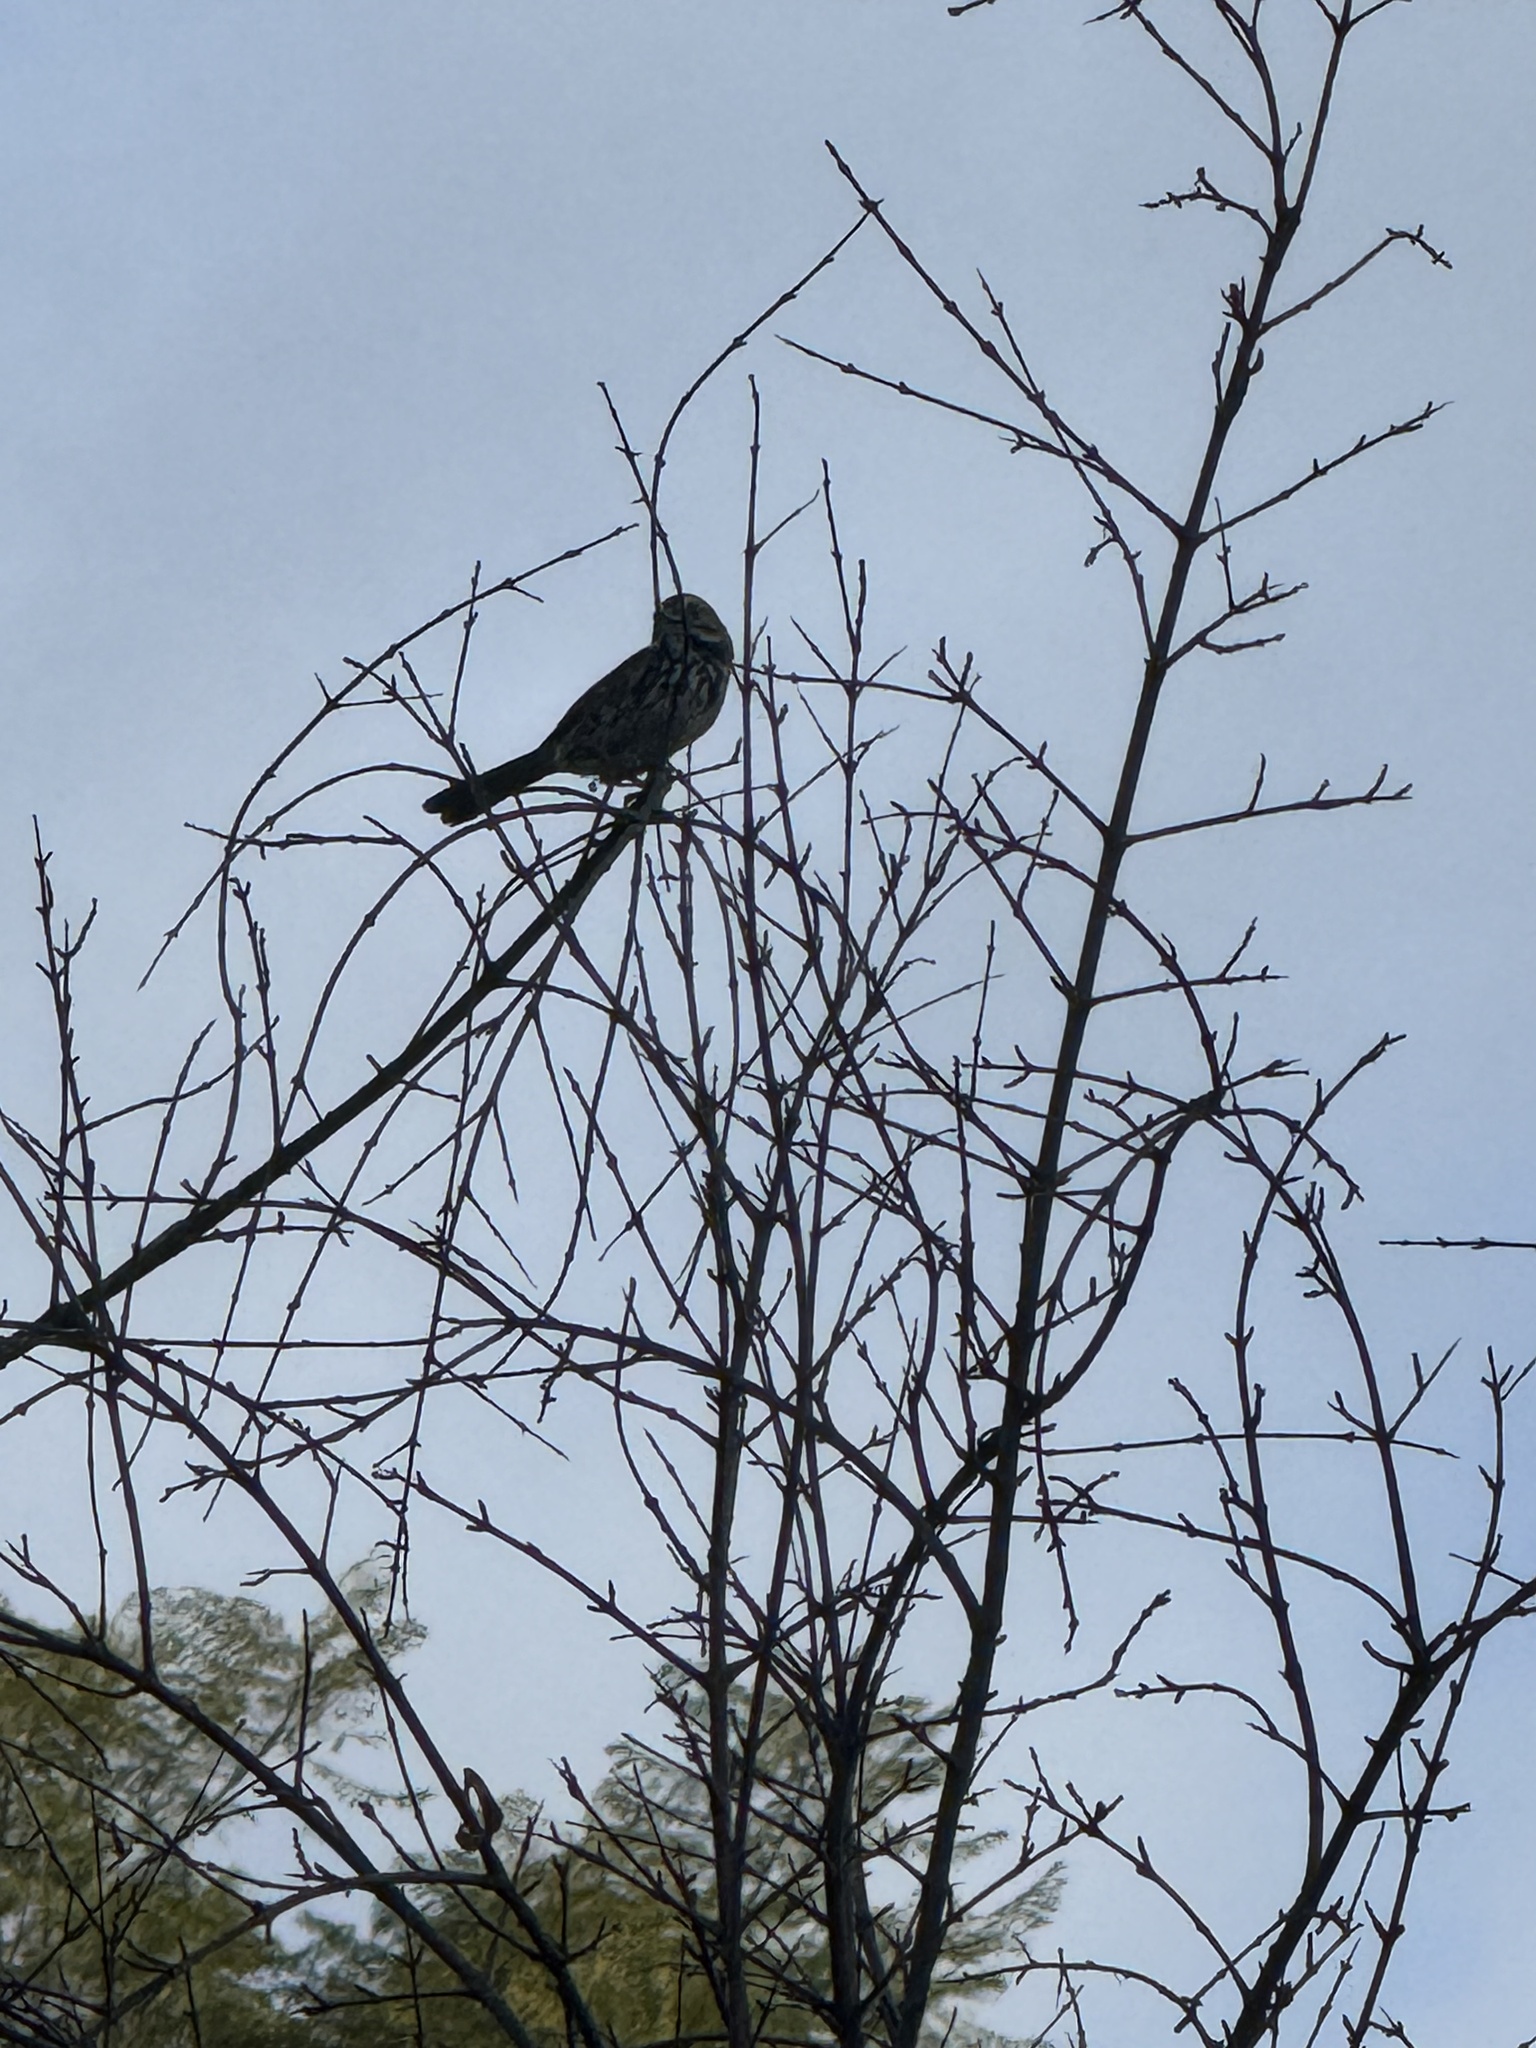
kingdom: Animalia
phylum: Chordata
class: Aves
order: Passeriformes
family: Passerellidae
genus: Melospiza
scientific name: Melospiza melodia
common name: Song sparrow
